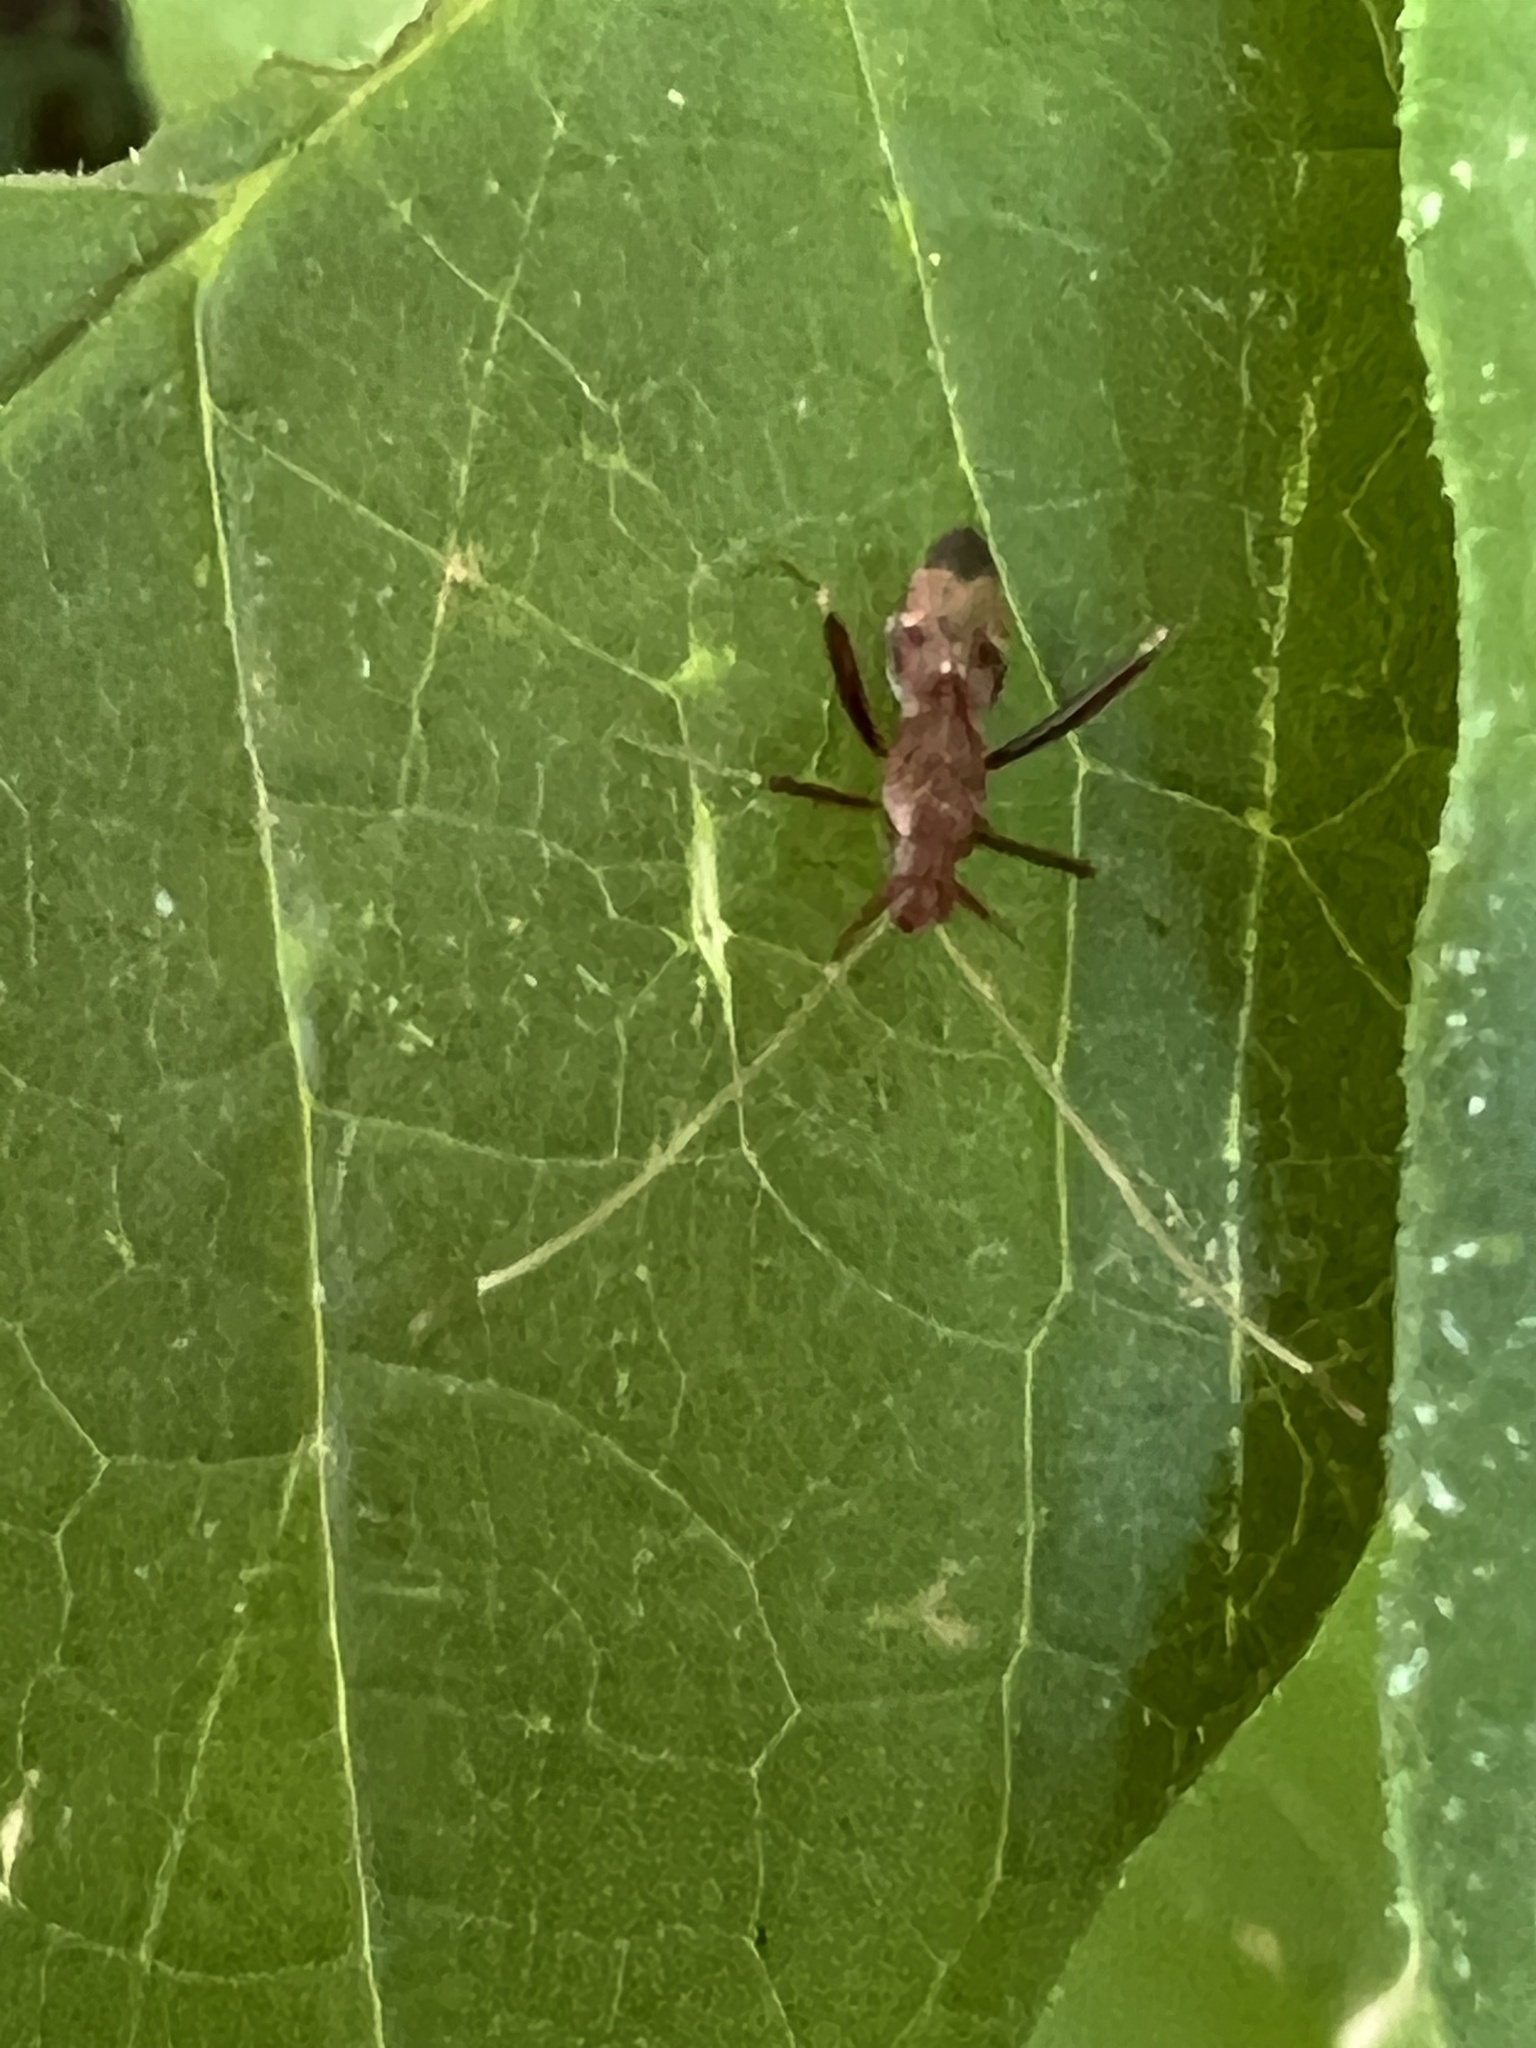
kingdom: Animalia
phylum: Arthropoda
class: Insecta
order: Hemiptera
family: Miridae
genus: Paraxenetus
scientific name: Paraxenetus guttulatus
